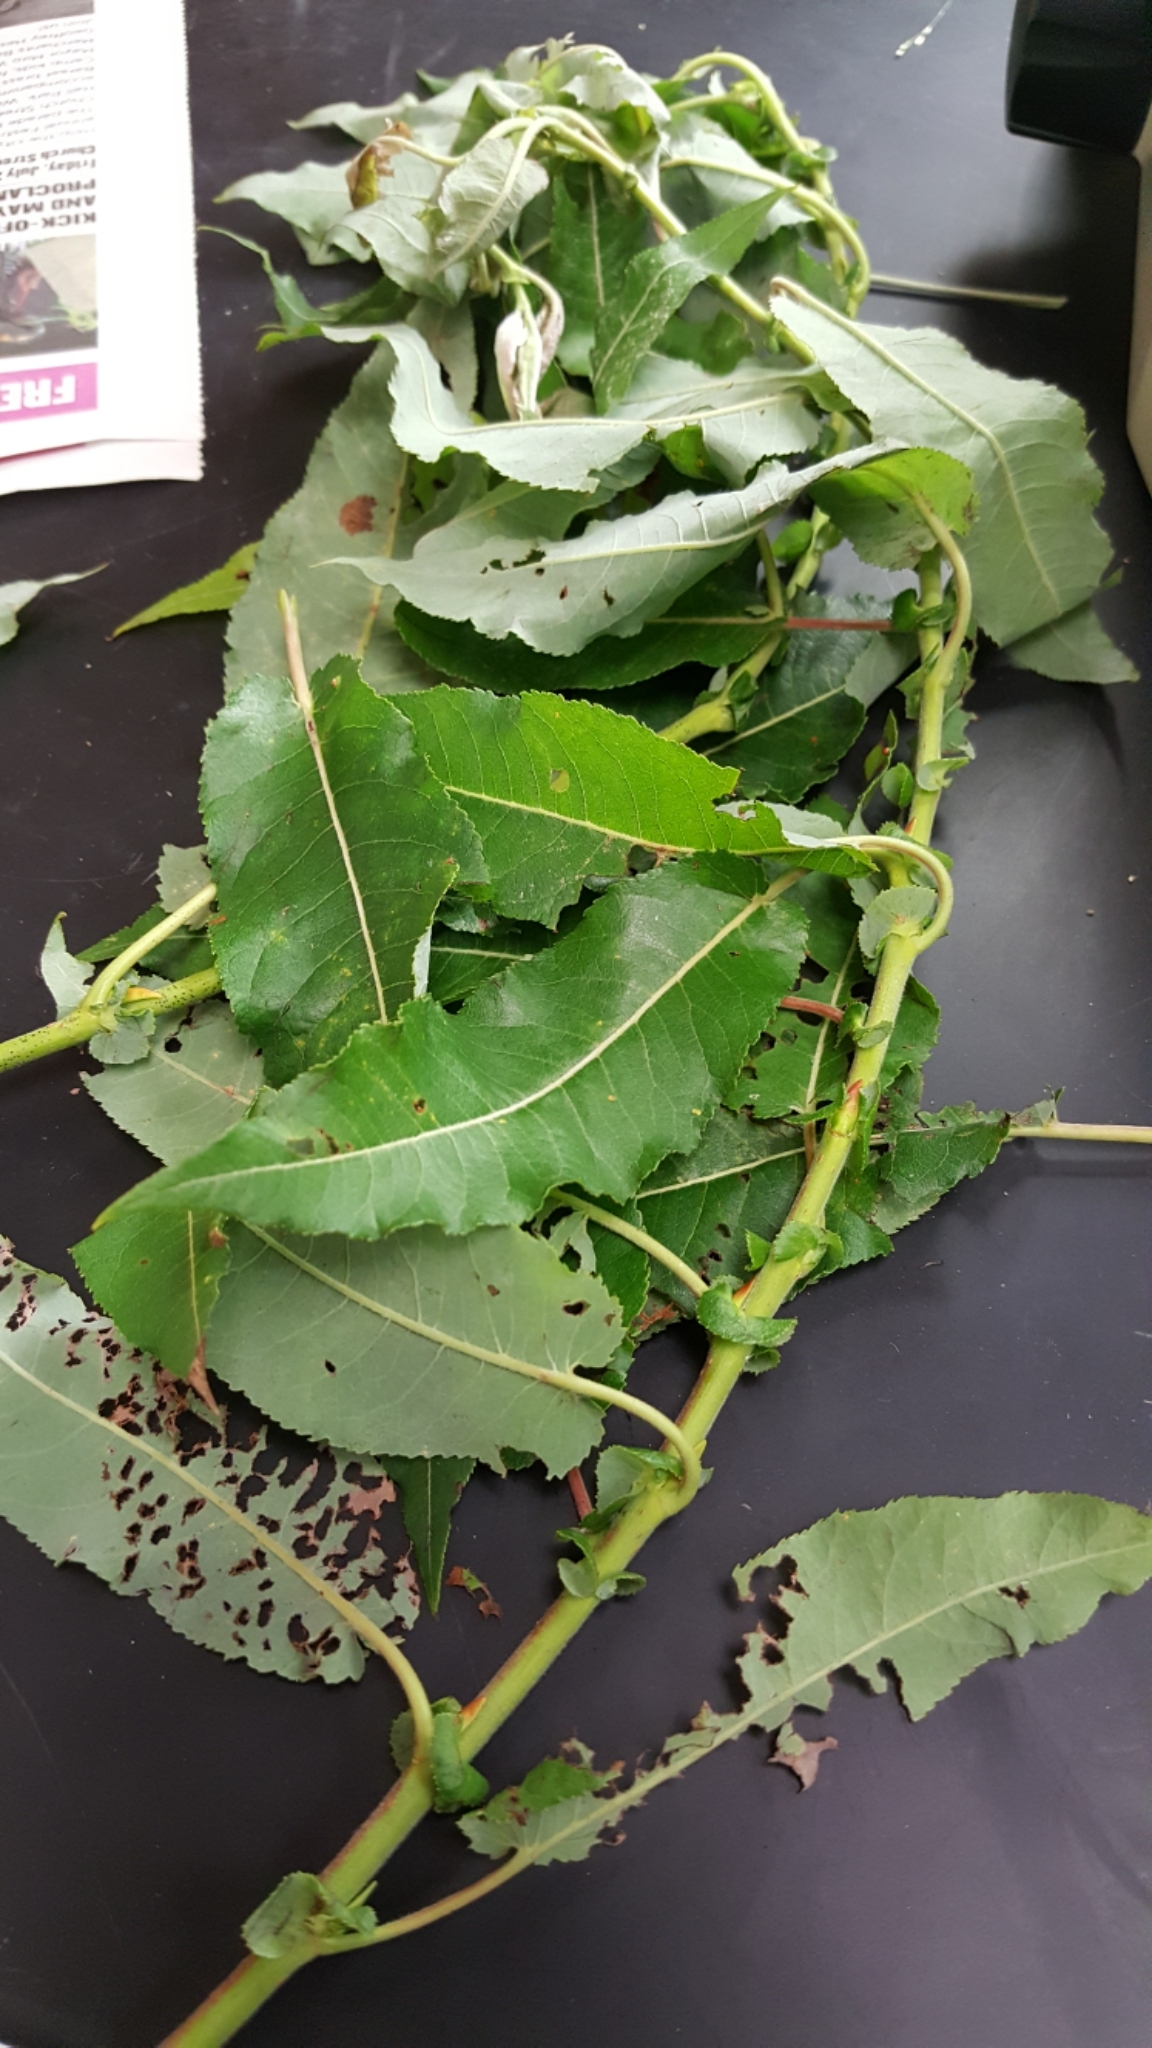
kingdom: Plantae
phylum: Tracheophyta
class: Magnoliopsida
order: Malpighiales
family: Salicaceae
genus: Salix
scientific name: Salix eriocephala
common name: Heart-leaved willow
